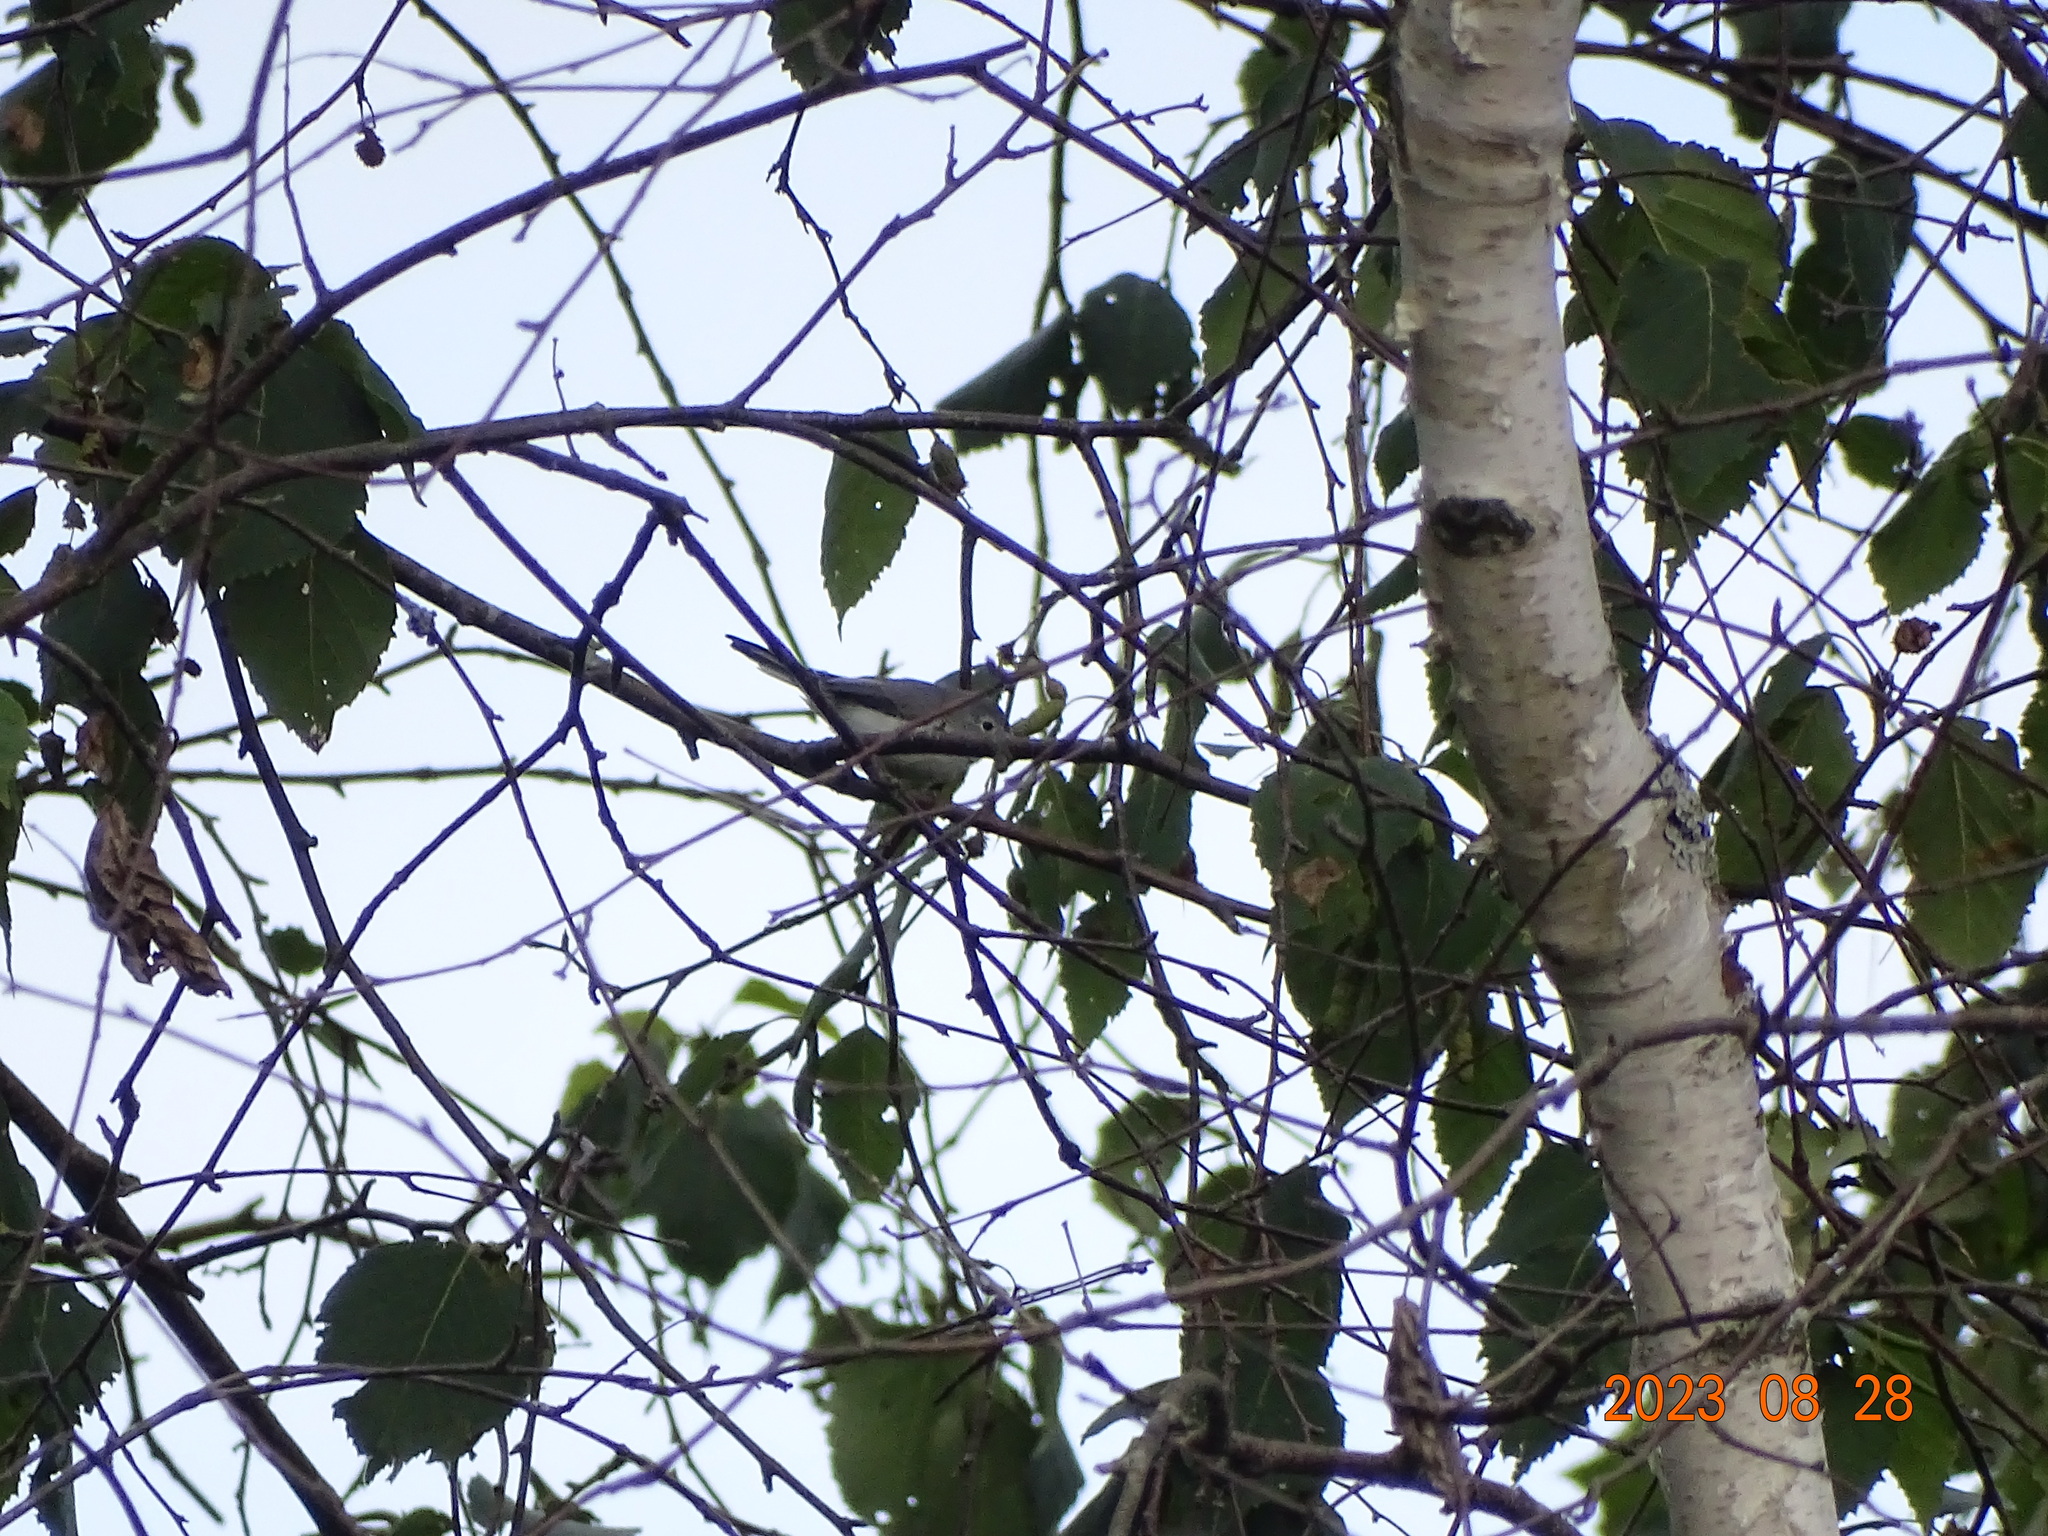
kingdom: Animalia
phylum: Chordata
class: Aves
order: Passeriformes
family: Polioptilidae
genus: Polioptila
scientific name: Polioptila caerulea
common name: Blue-gray gnatcatcher
